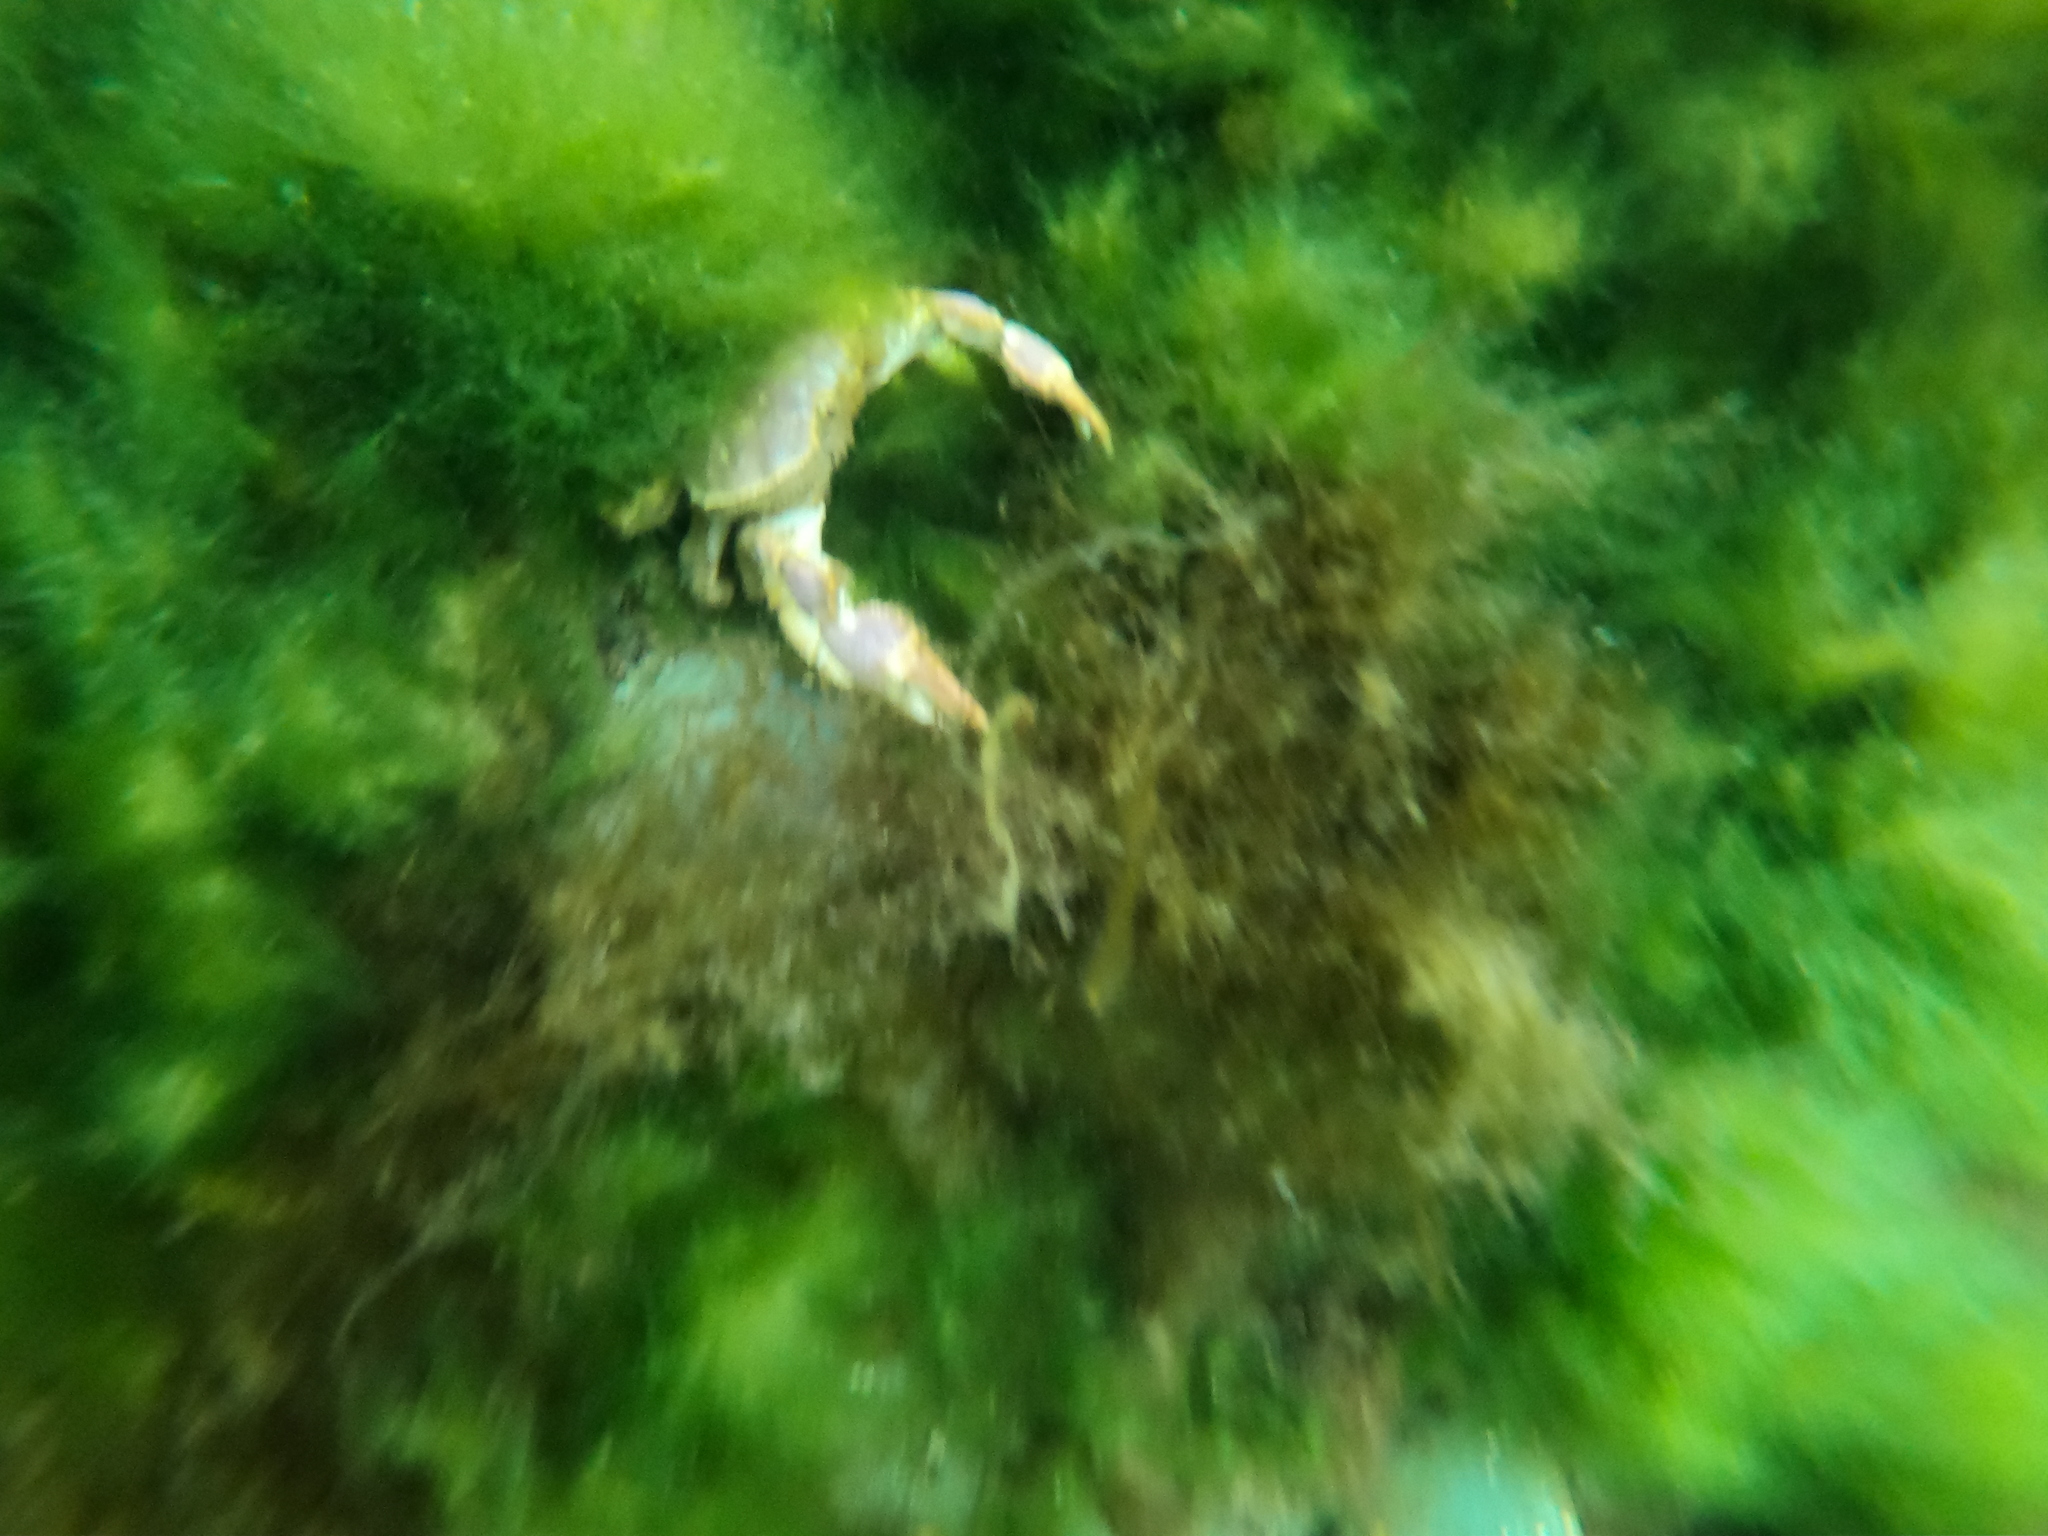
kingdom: Animalia
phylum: Arthropoda
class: Malacostraca
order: Decapoda
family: Trichopeltariidae
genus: Peltarion
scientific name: Peltarion spinulosum
